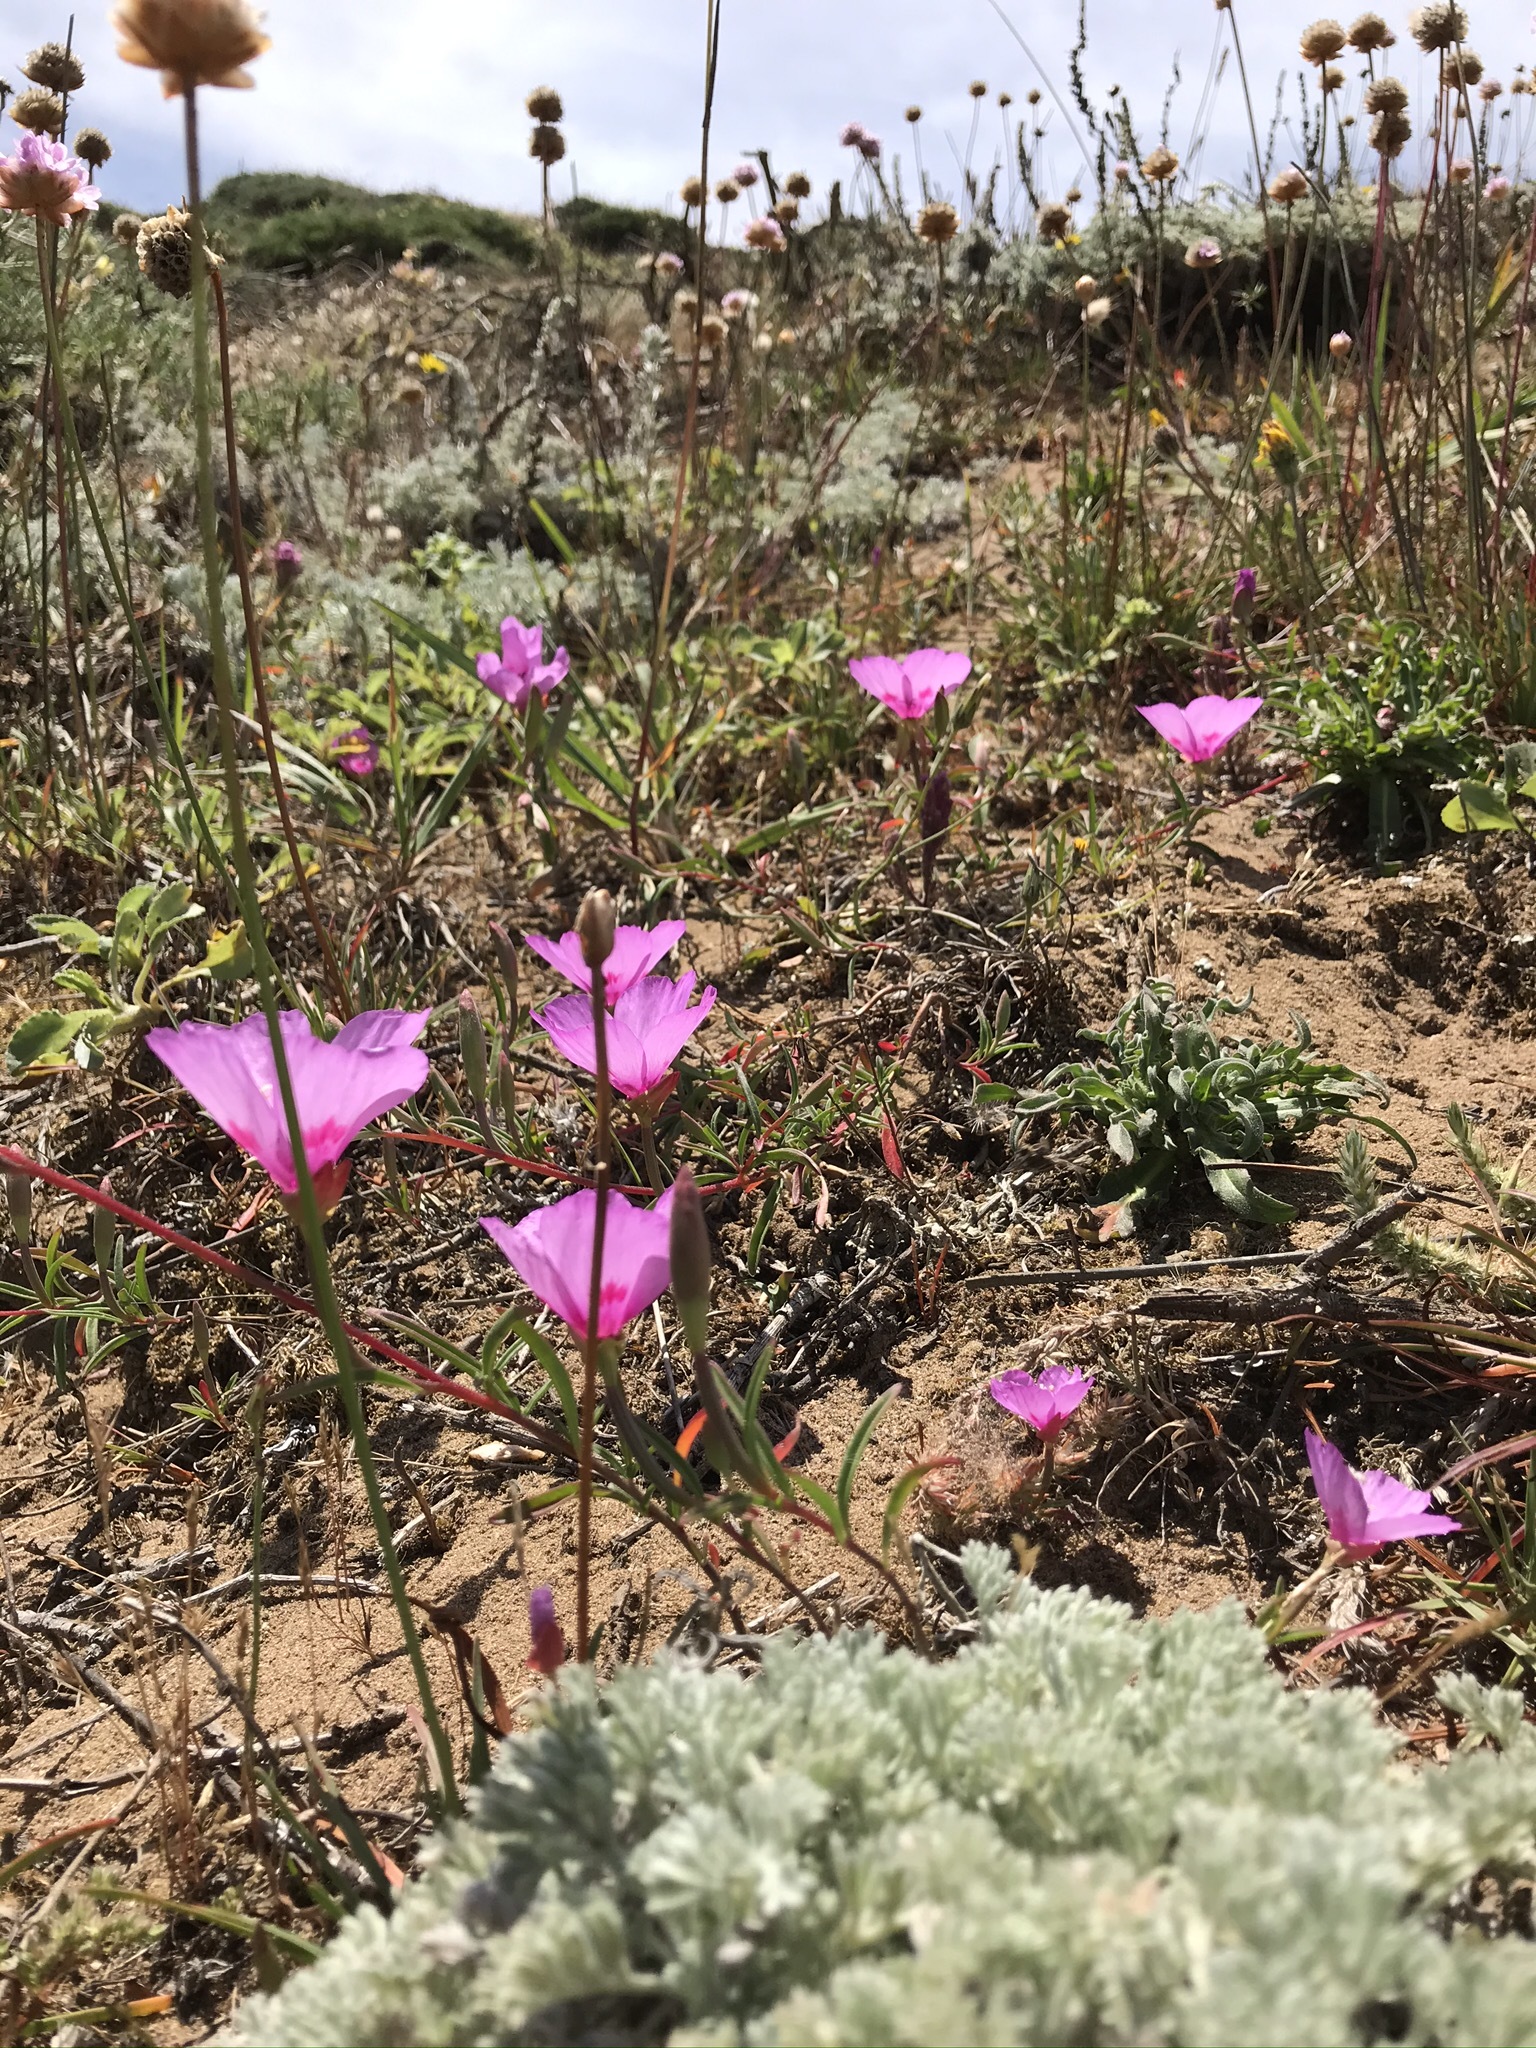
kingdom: Plantae
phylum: Tracheophyta
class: Magnoliopsida
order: Myrtales
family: Onagraceae
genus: Clarkia
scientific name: Clarkia amoena
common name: Godetia
